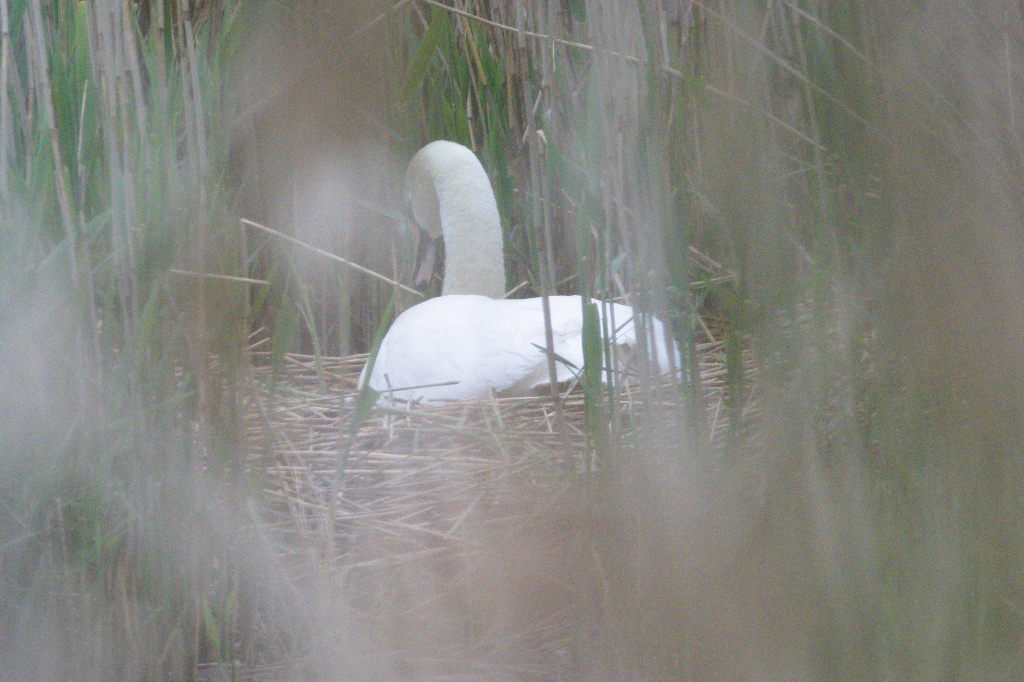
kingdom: Animalia
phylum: Chordata
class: Aves
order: Anseriformes
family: Anatidae
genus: Cygnus
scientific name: Cygnus olor
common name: Mute swan
